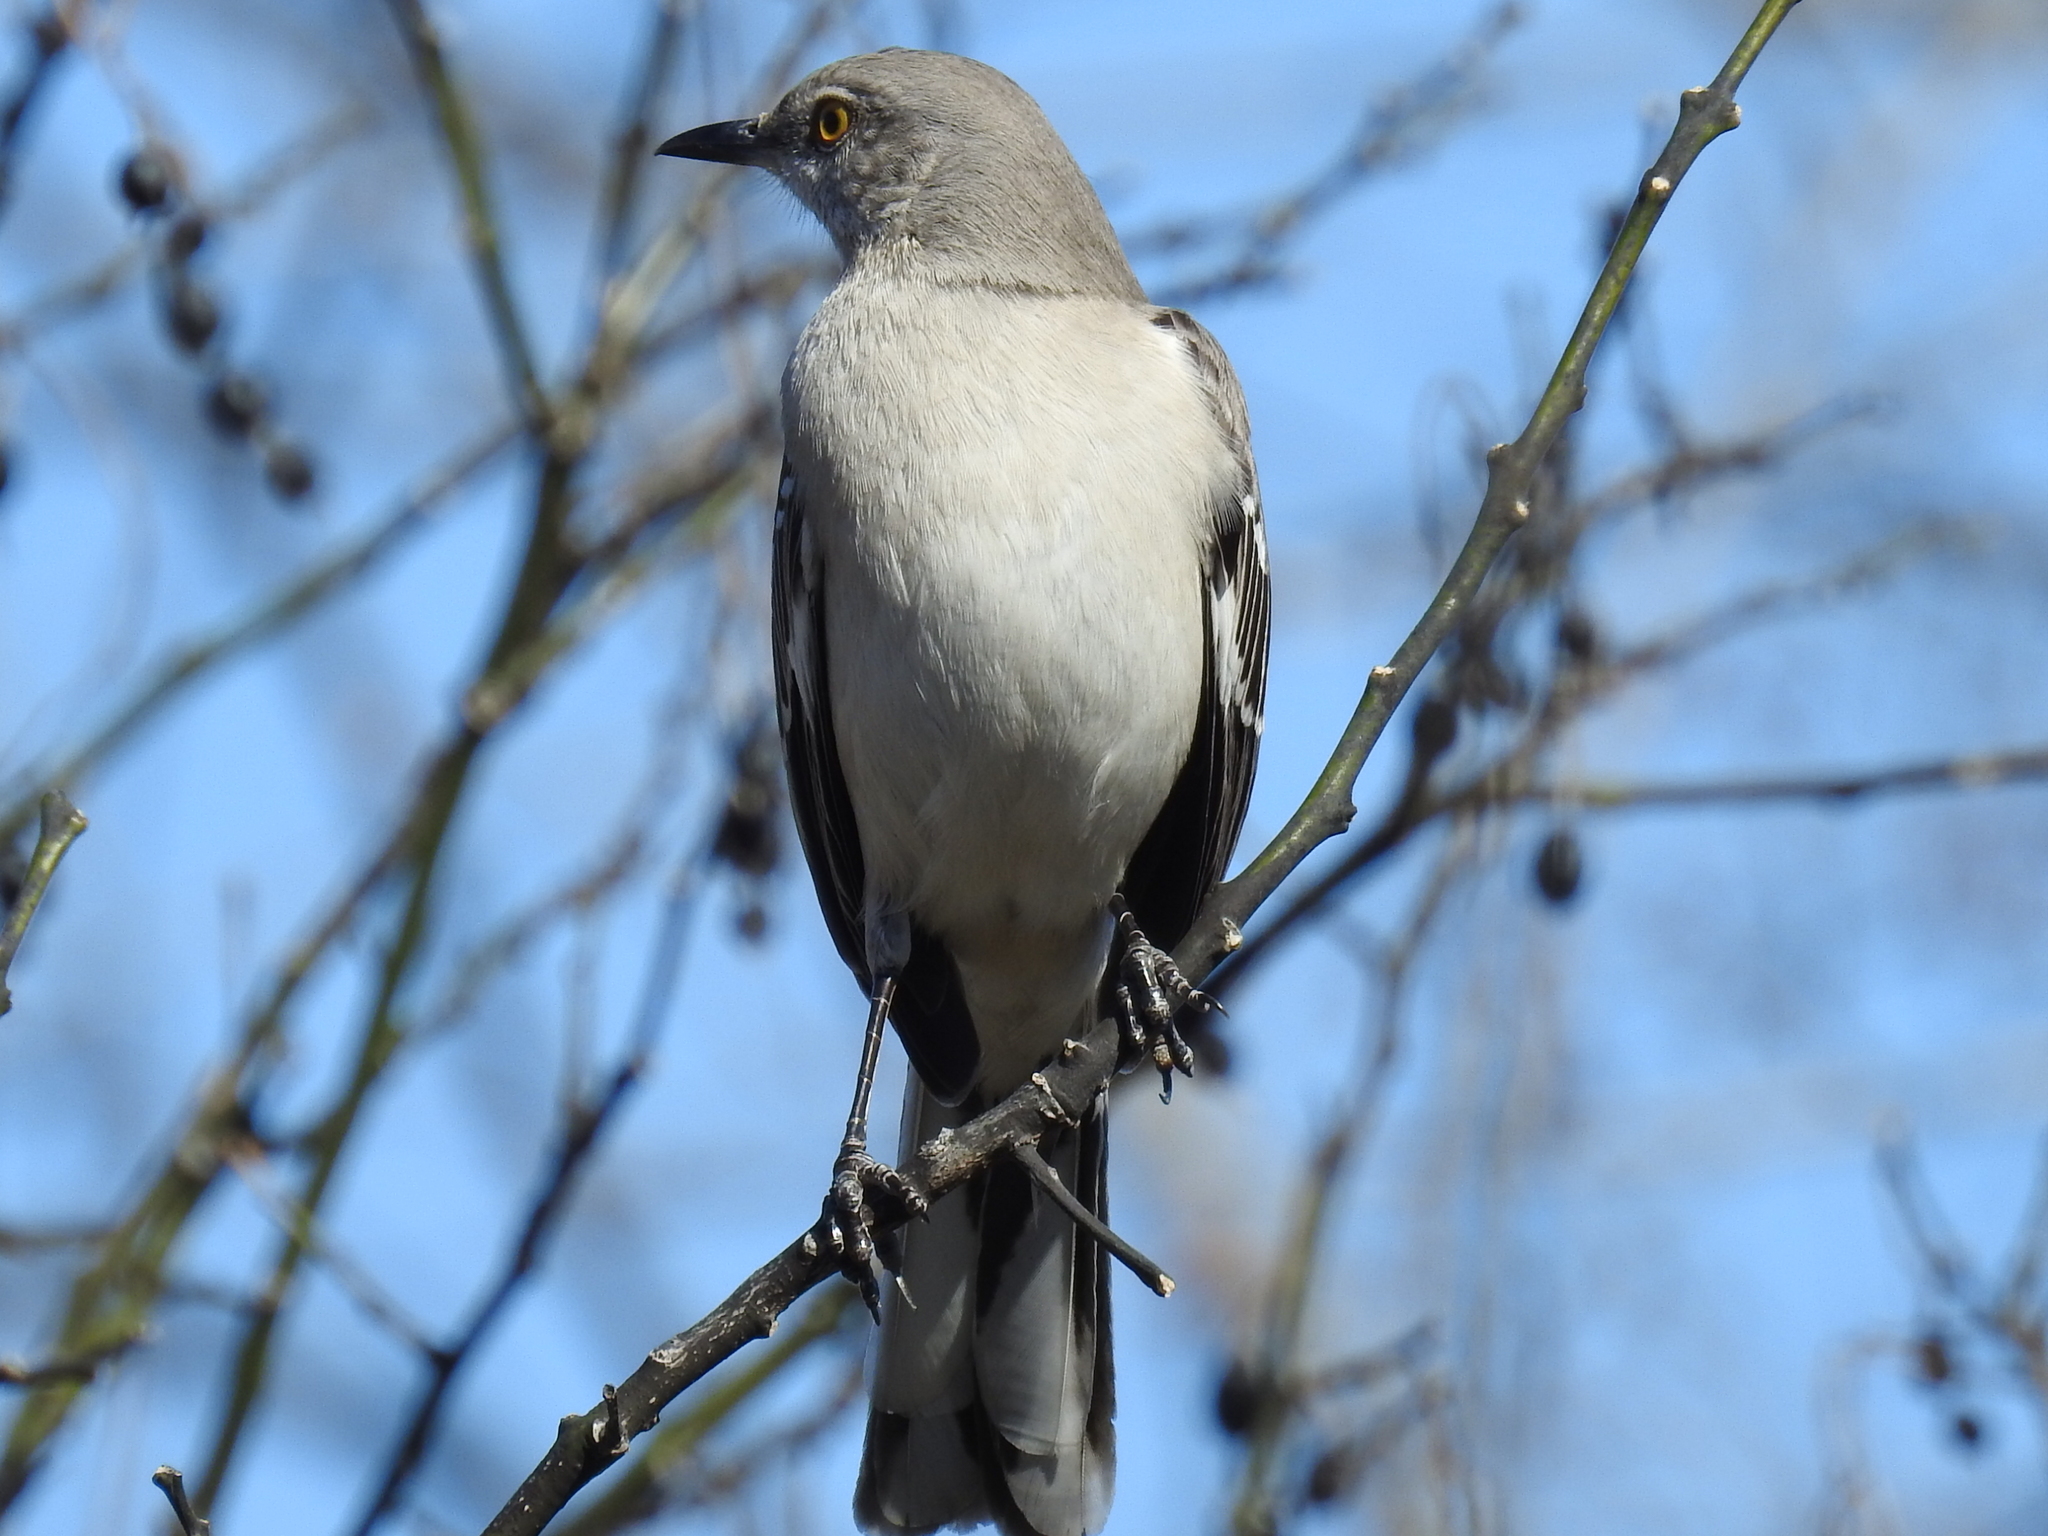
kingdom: Animalia
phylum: Chordata
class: Aves
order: Passeriformes
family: Mimidae
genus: Mimus
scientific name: Mimus polyglottos
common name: Northern mockingbird
